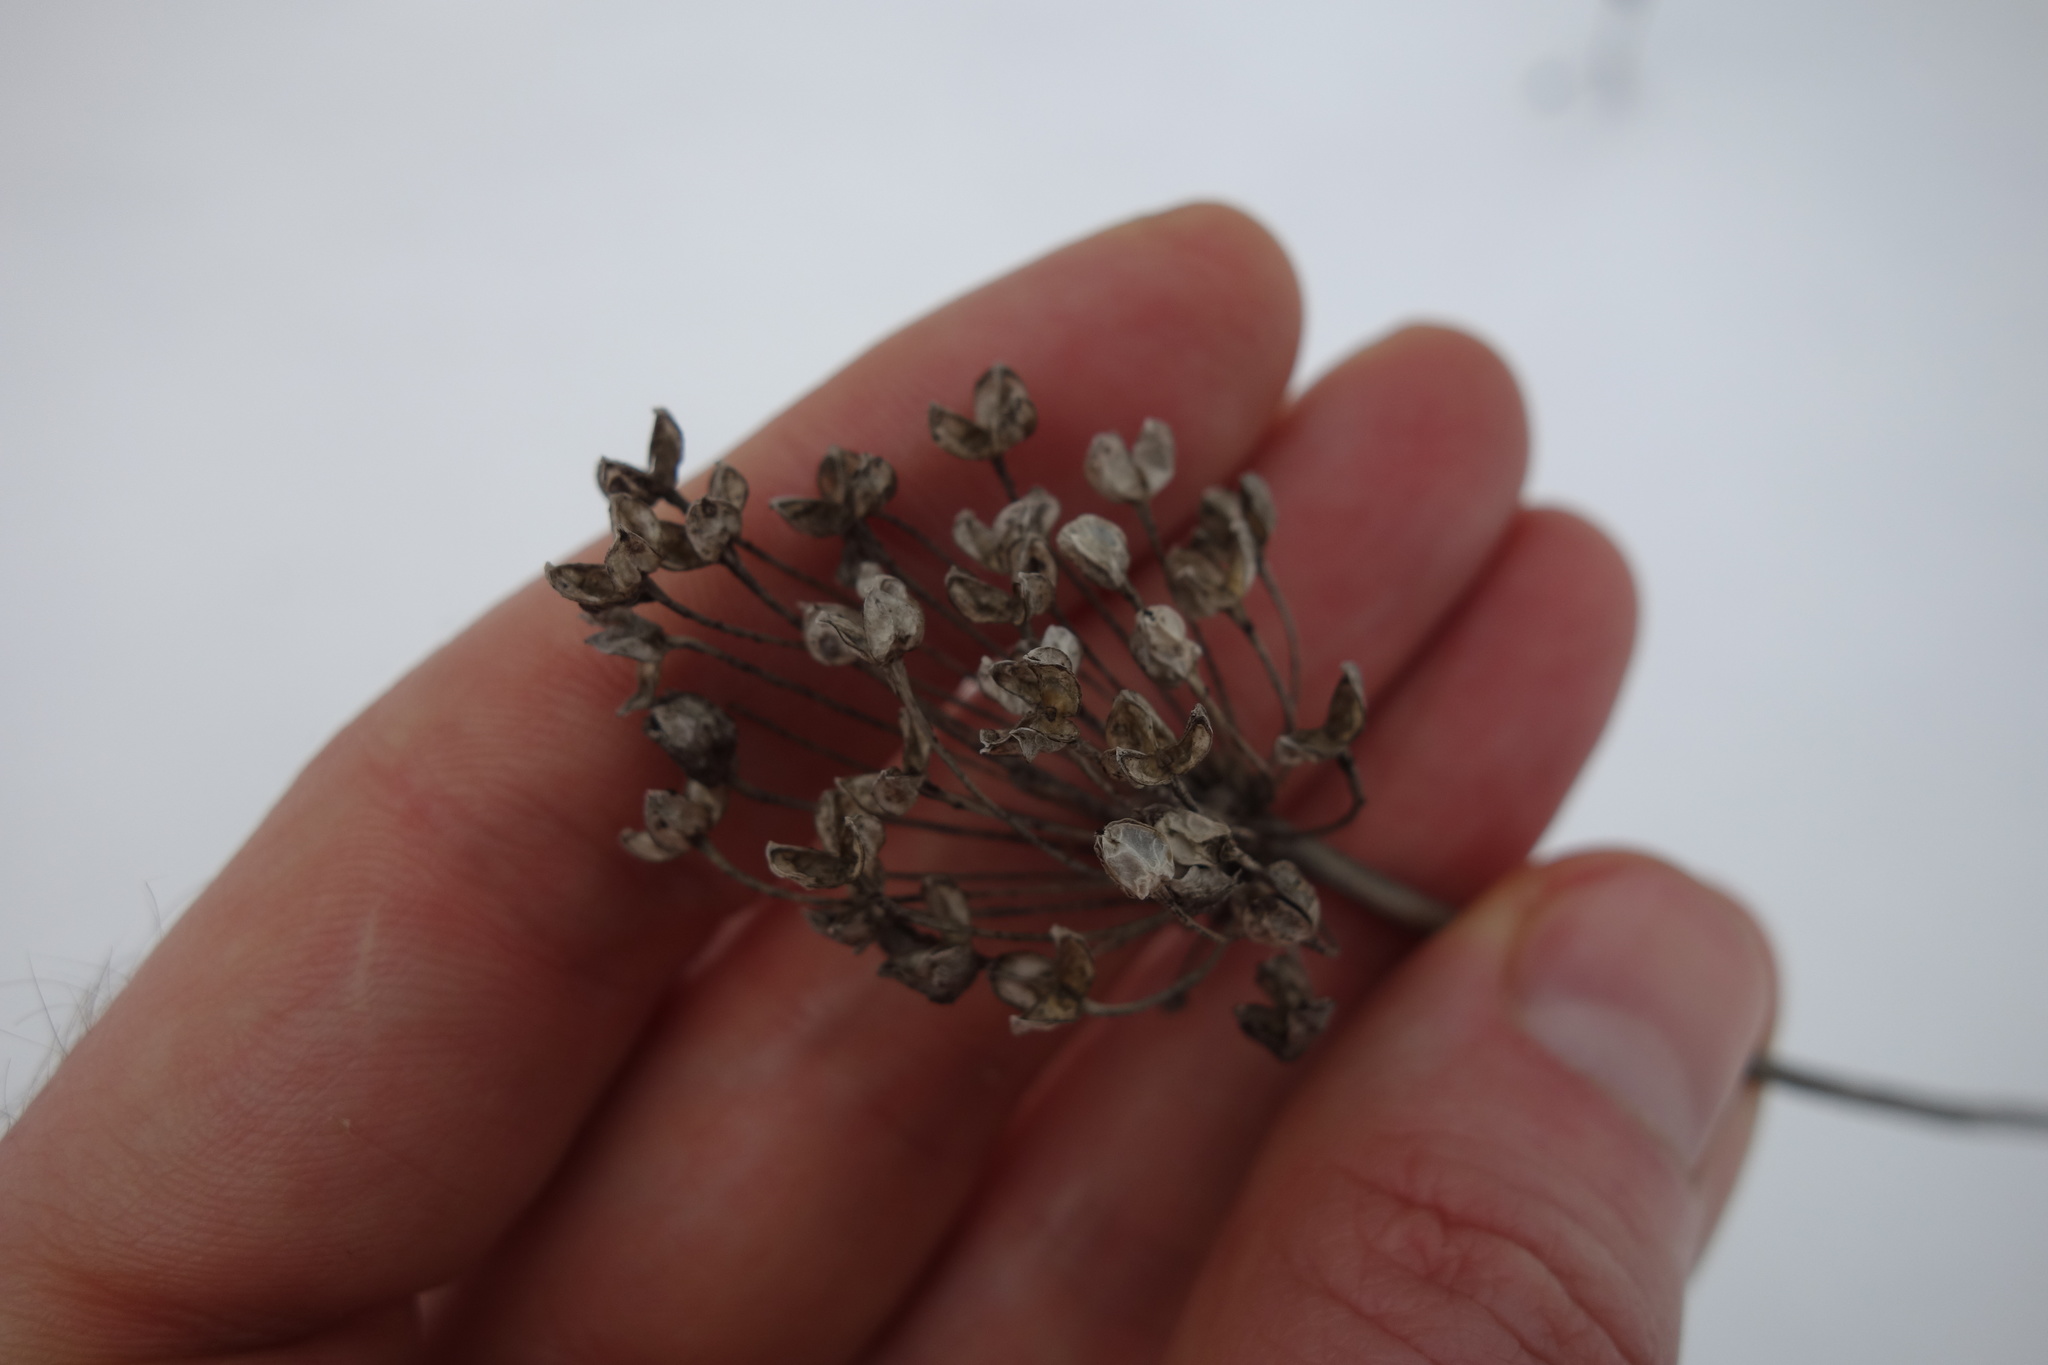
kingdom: Plantae
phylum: Tracheophyta
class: Liliopsida
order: Asparagales
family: Amaryllidaceae
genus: Allium
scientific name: Allium rotundum
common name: Sand leek
